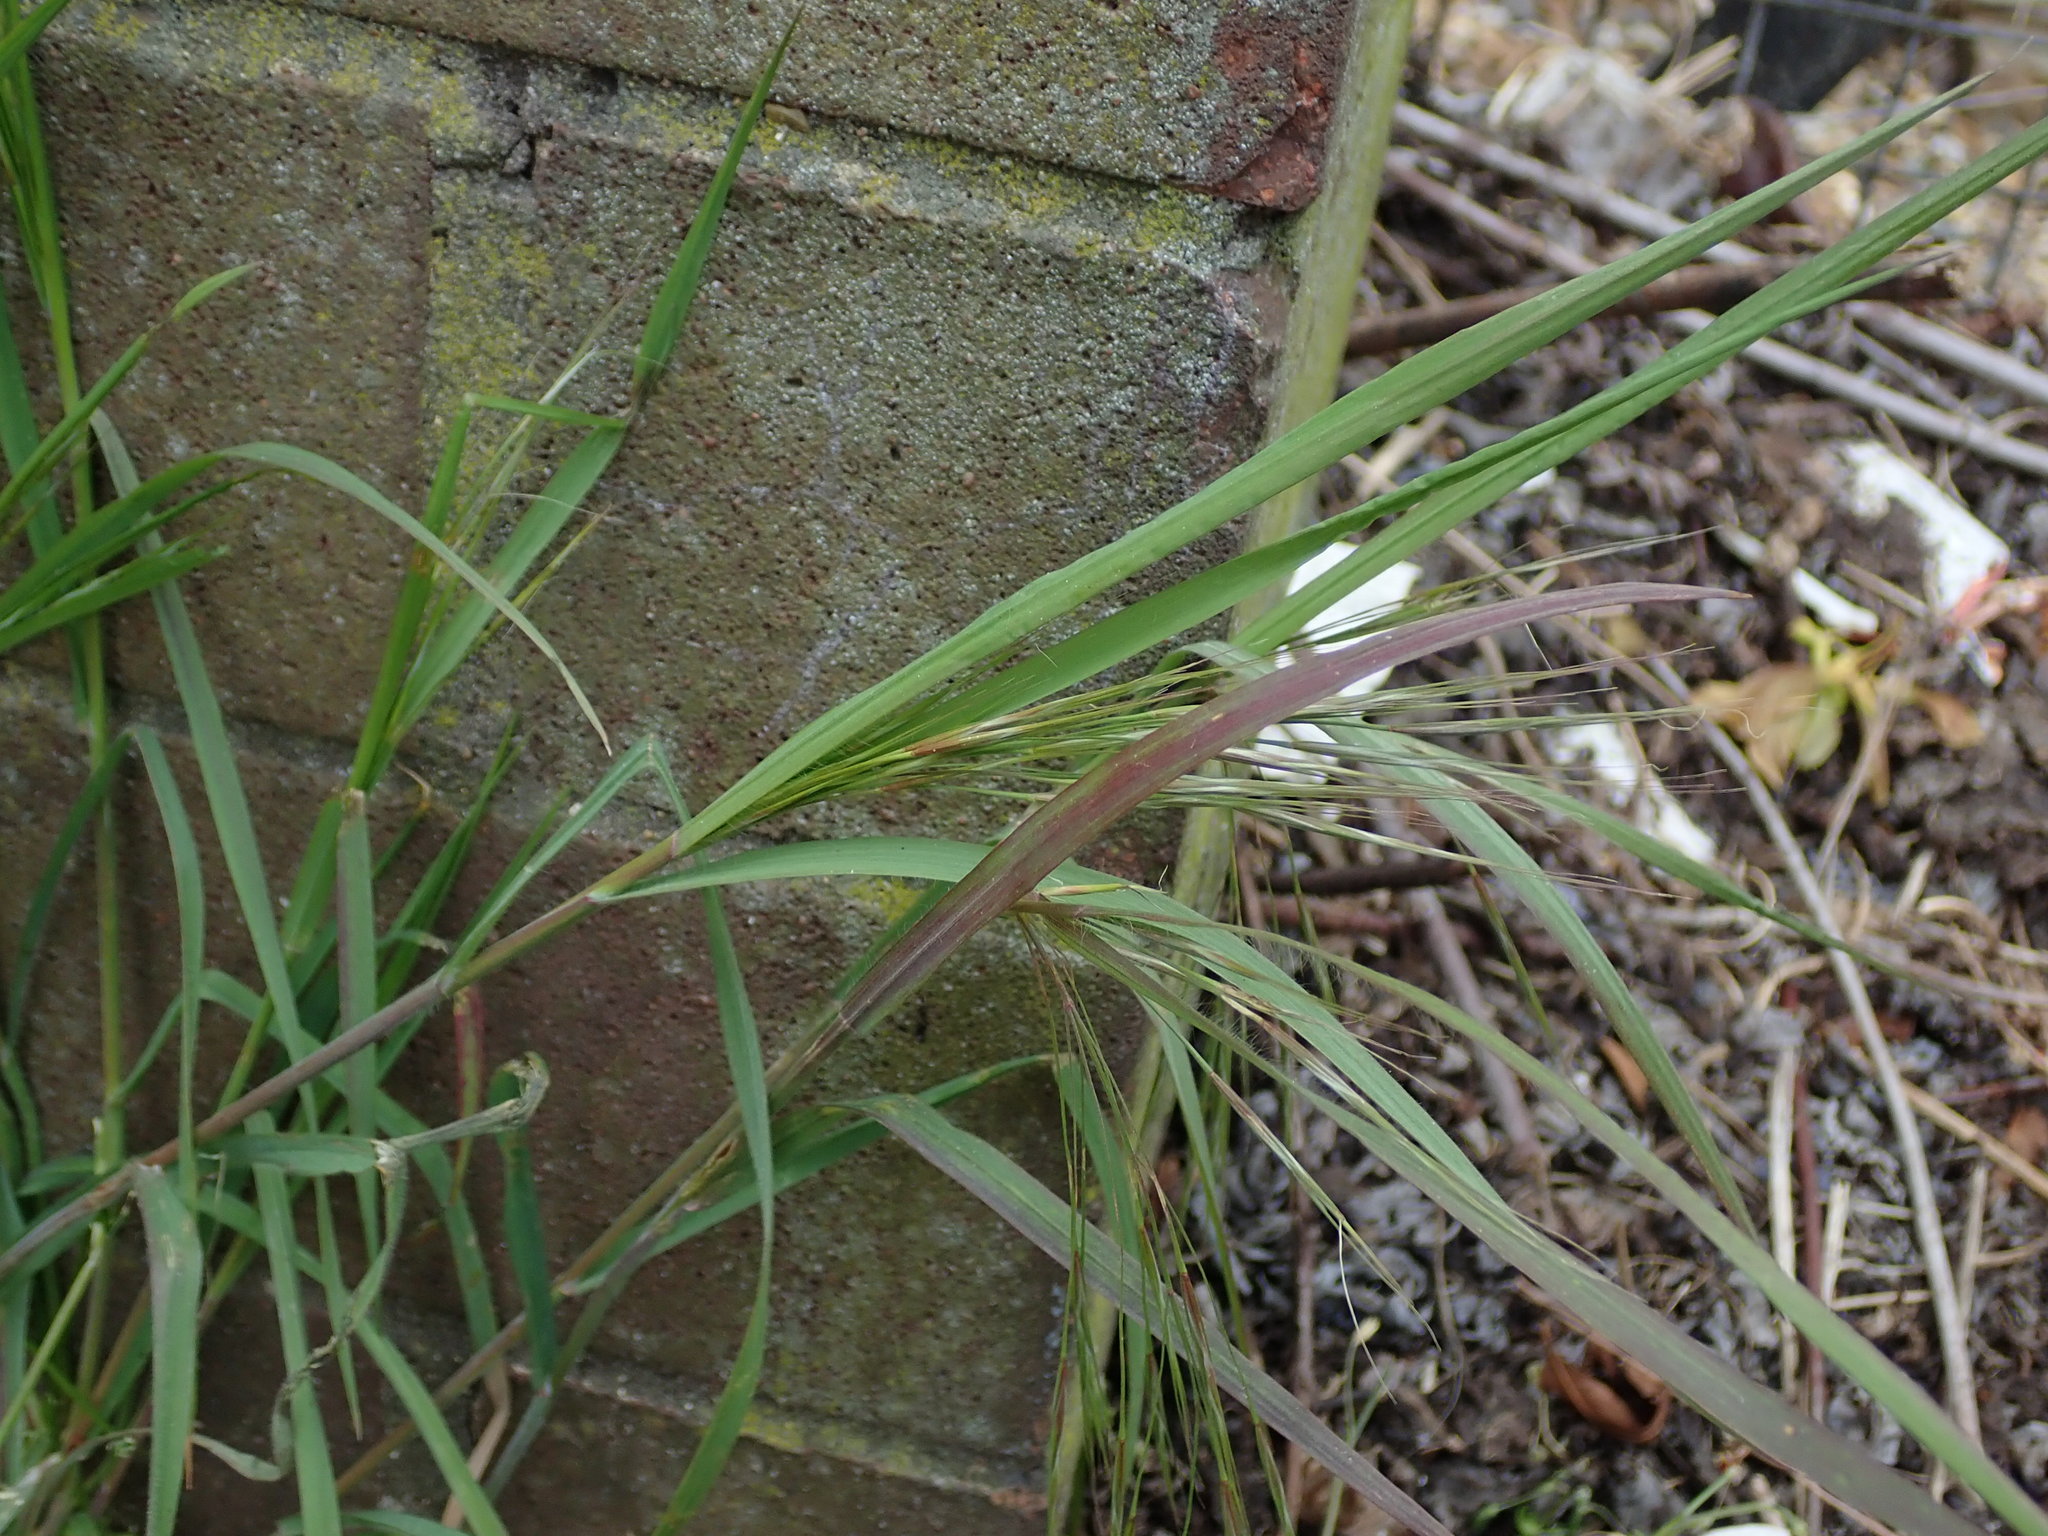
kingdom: Plantae
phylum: Tracheophyta
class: Liliopsida
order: Poales
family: Poaceae
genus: Bromus
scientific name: Bromus sterilis
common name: Poverty brome
